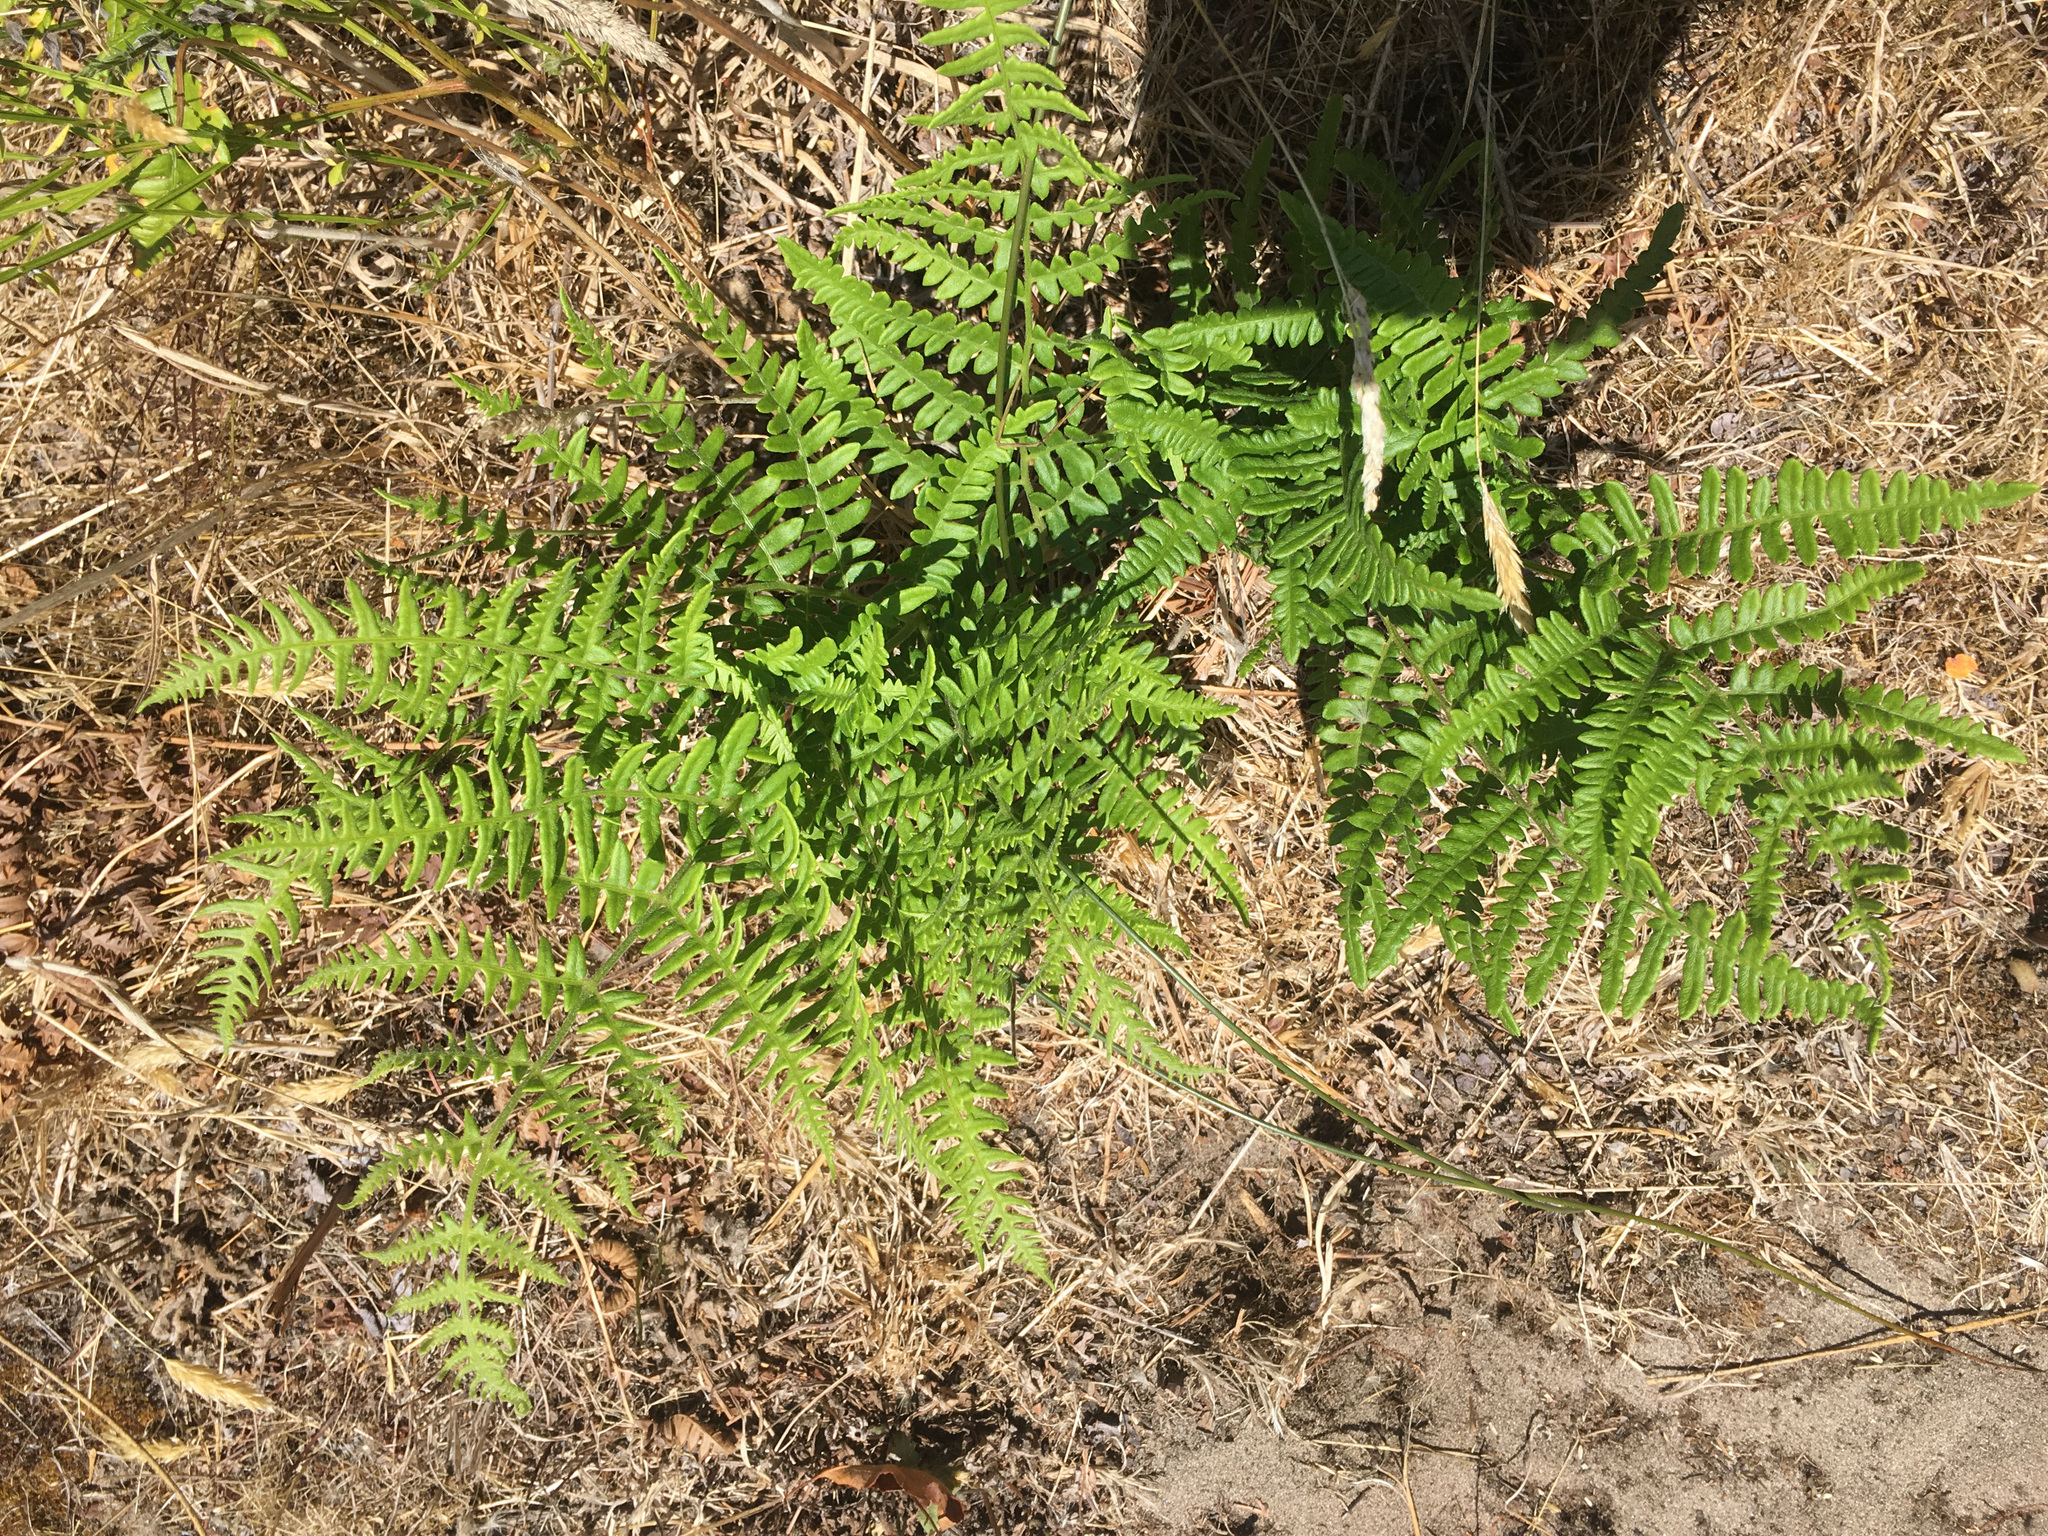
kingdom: Plantae
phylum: Tracheophyta
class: Polypodiopsida
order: Polypodiales
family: Dennstaedtiaceae
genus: Pteridium
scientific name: Pteridium aquilinum
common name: Bracken
